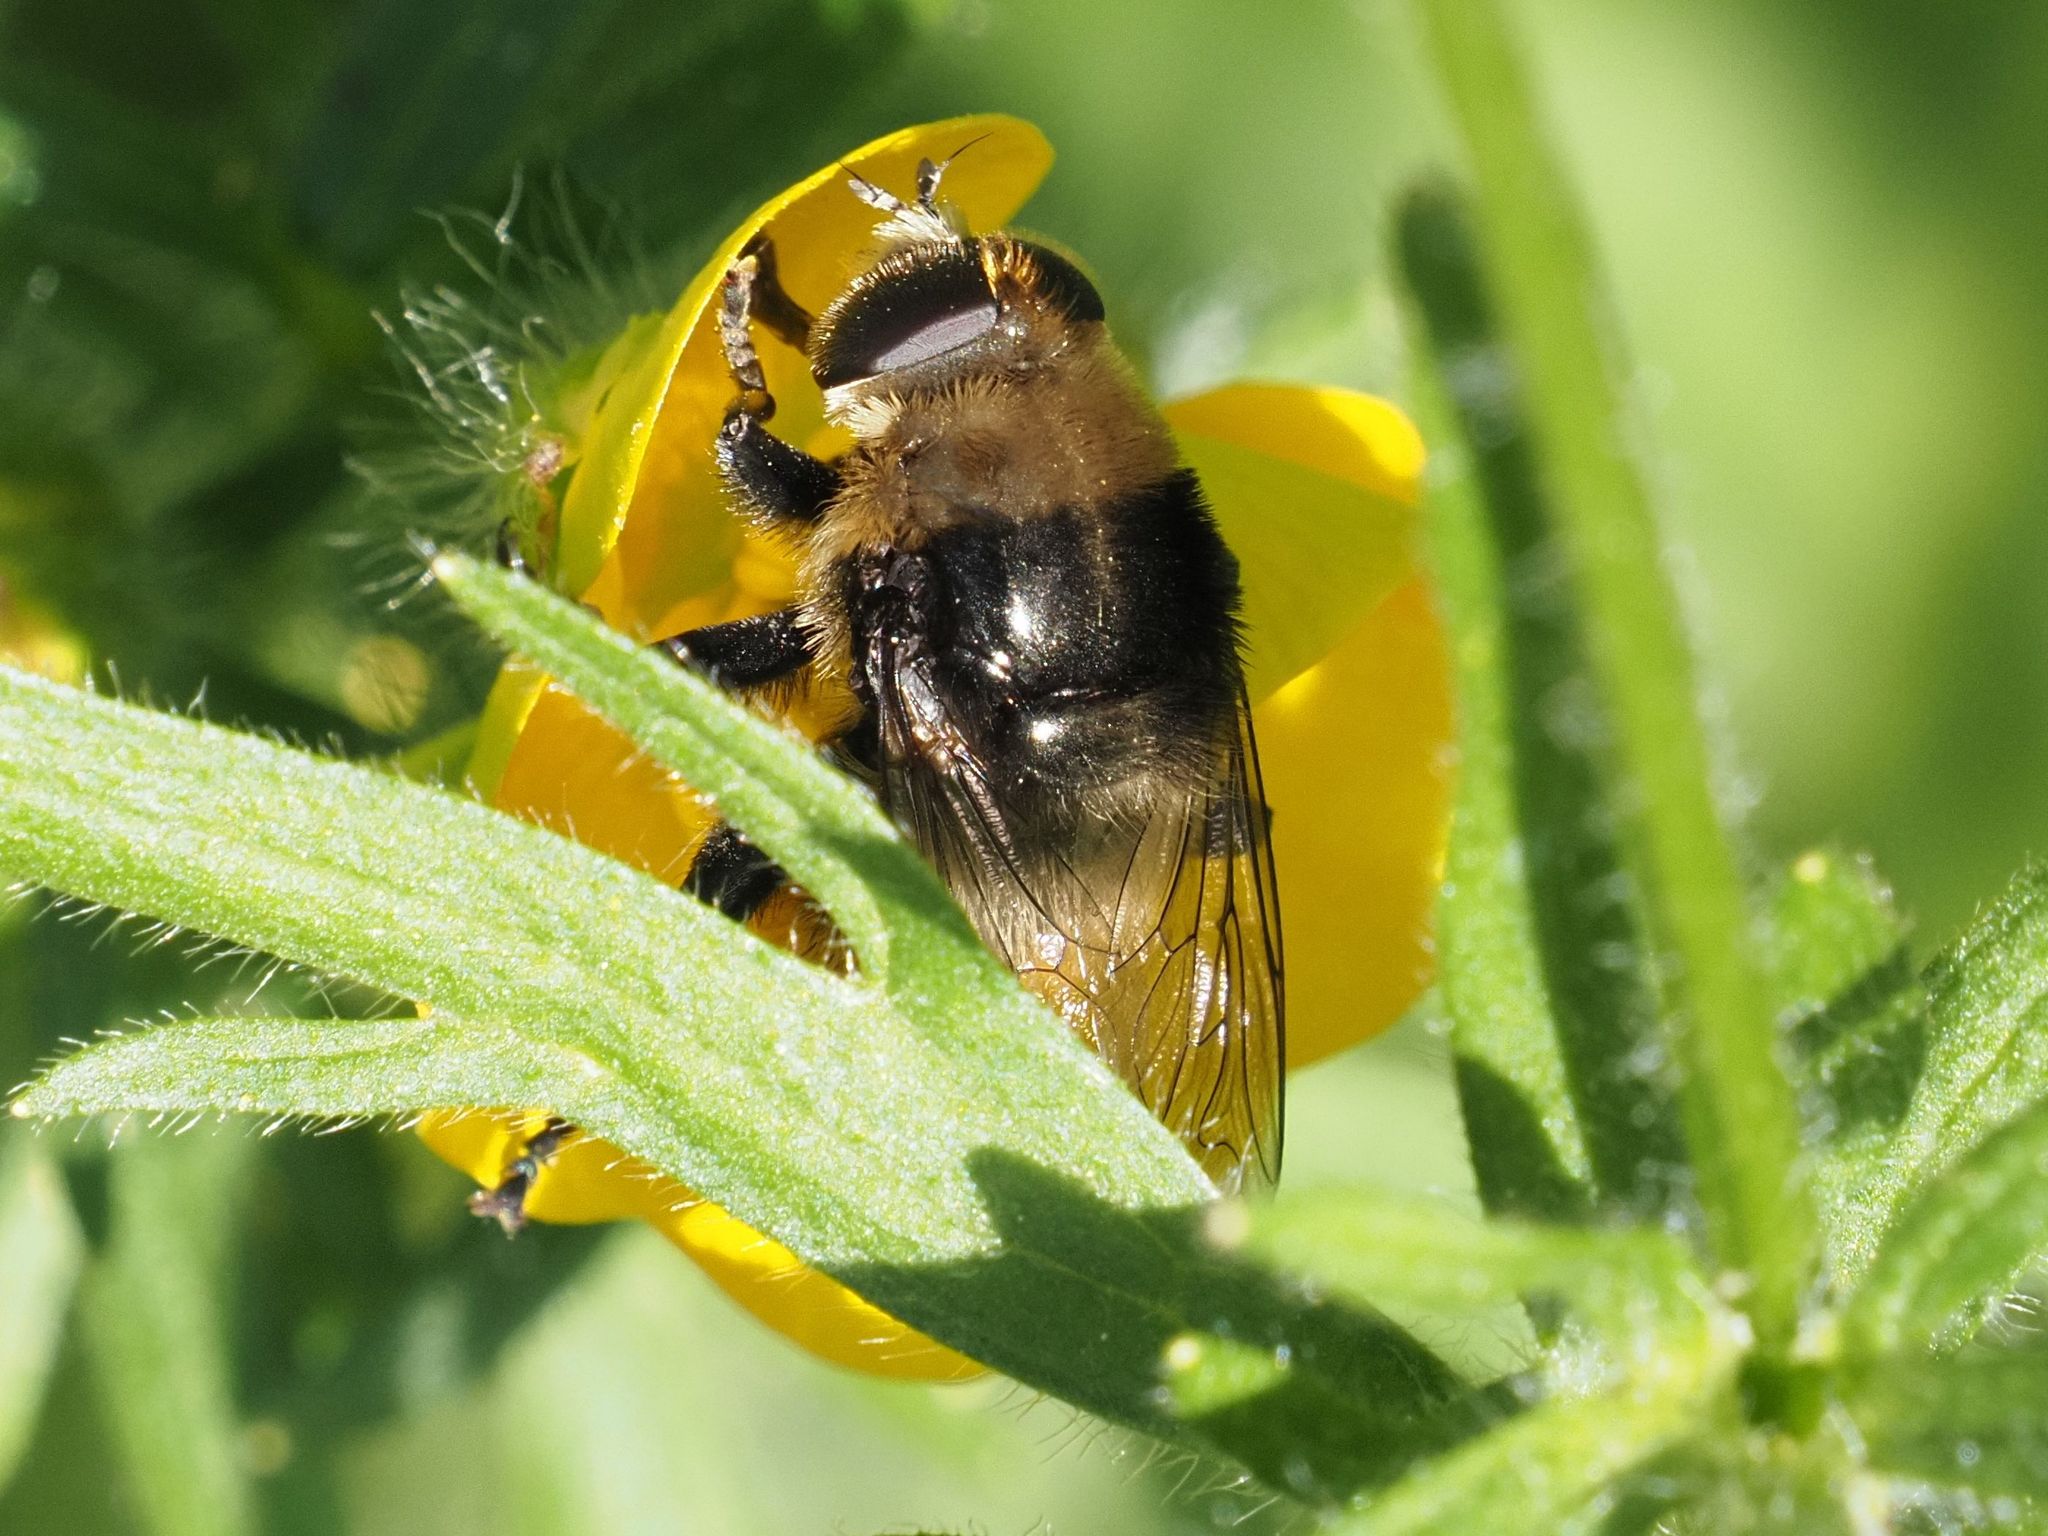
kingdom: Animalia
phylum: Arthropoda
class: Insecta
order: Diptera
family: Syrphidae
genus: Merodon
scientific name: Merodon equestris
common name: Greater bulb-fly
